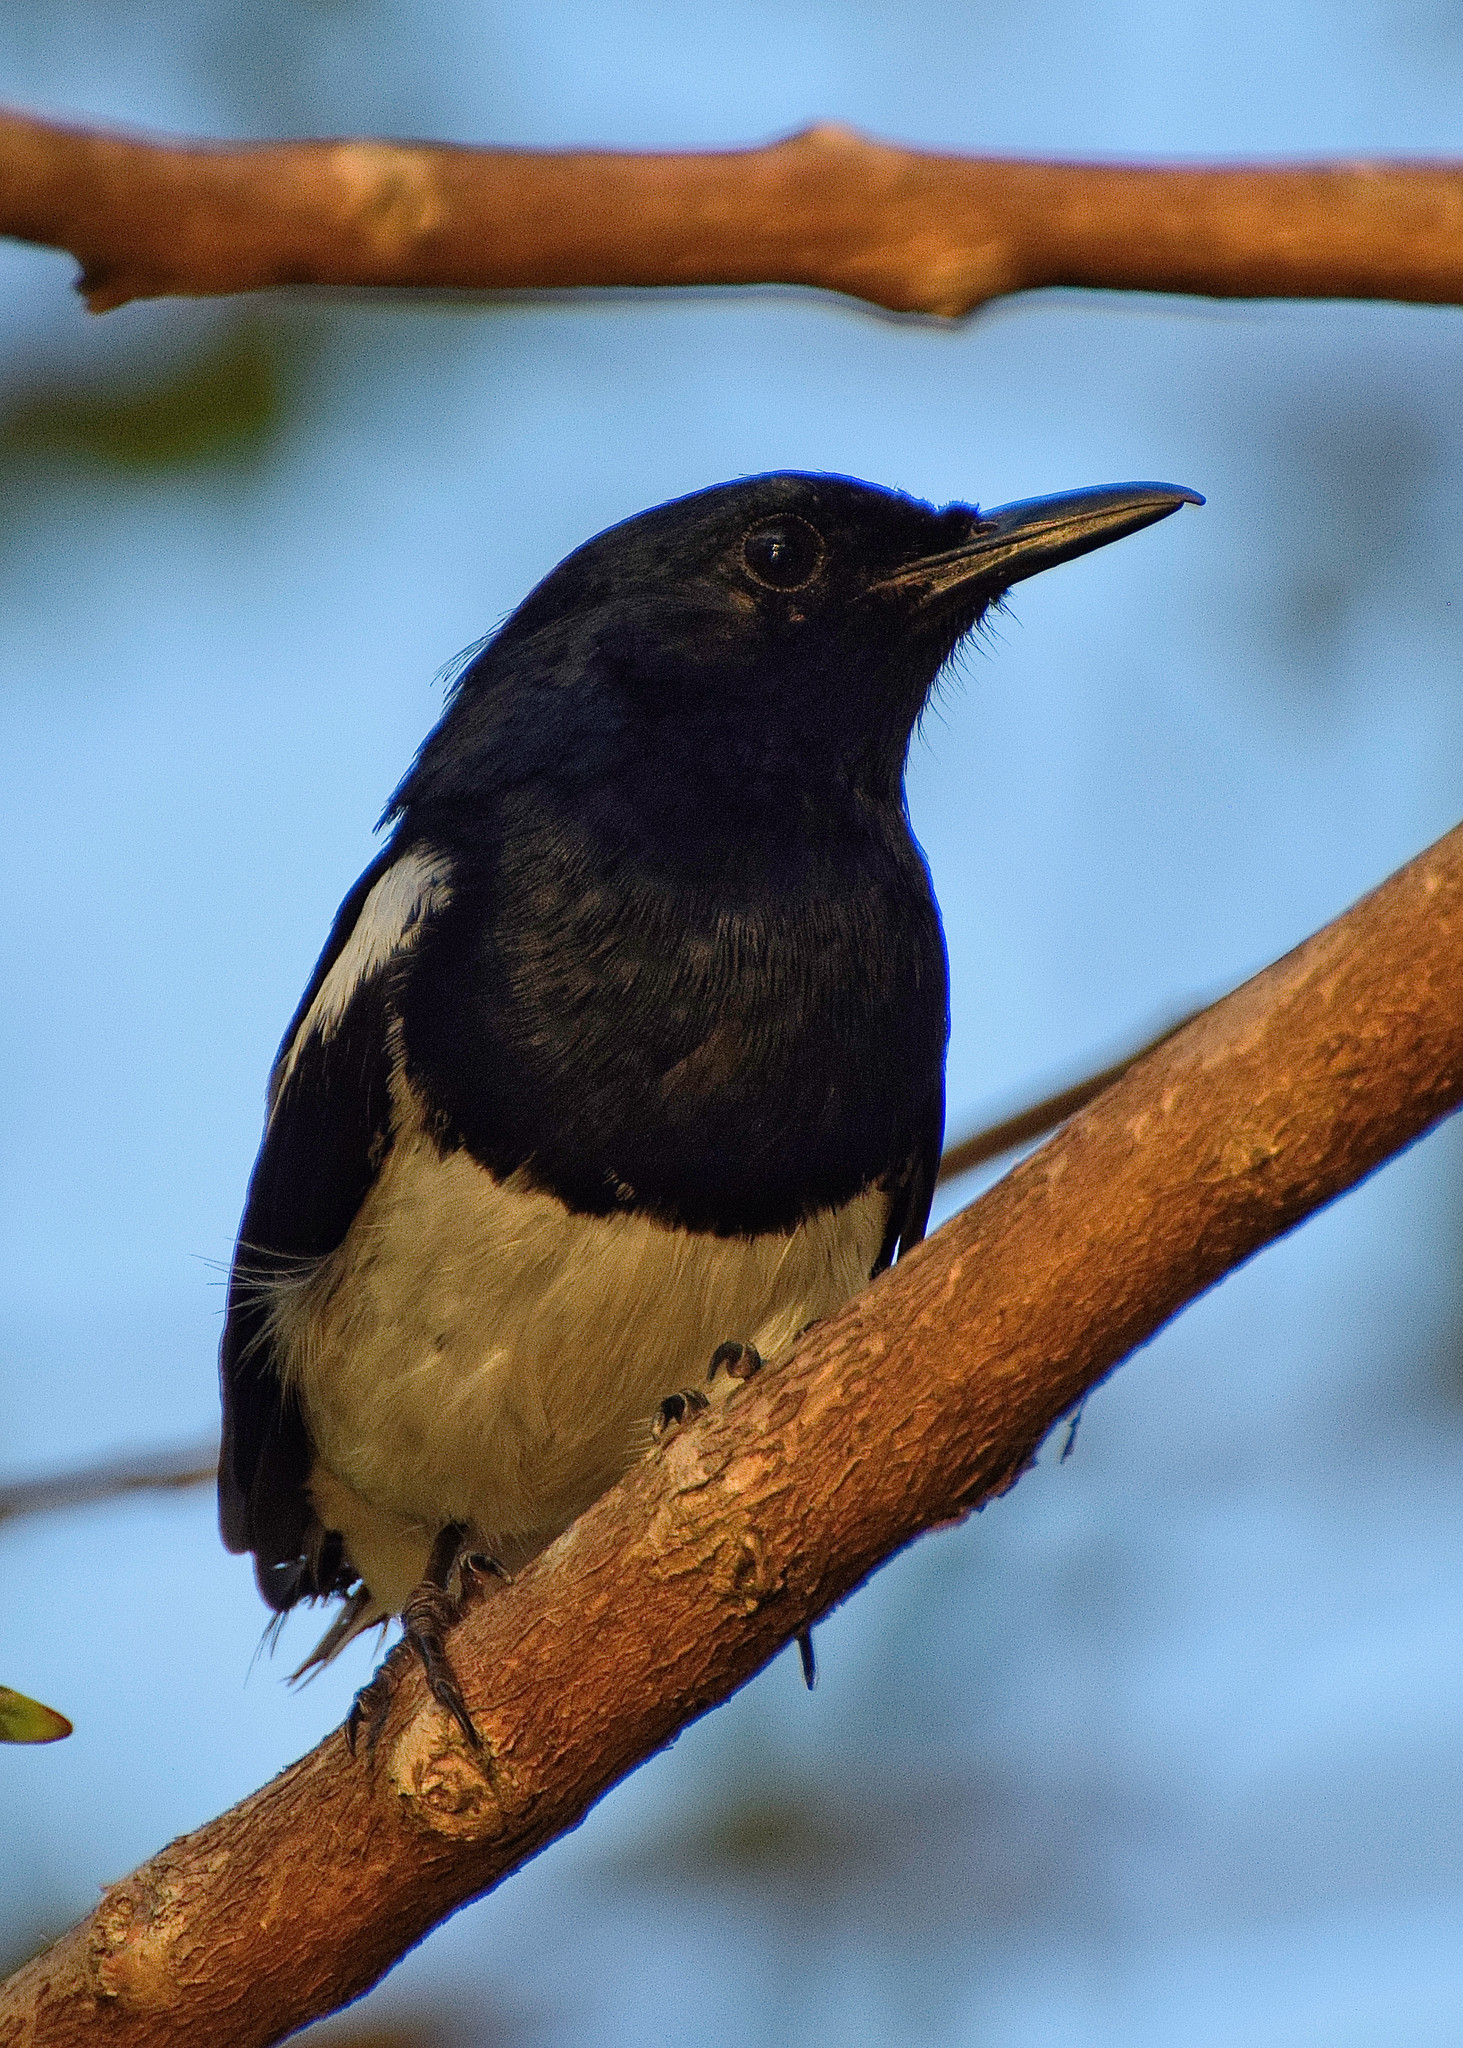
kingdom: Animalia
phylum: Chordata
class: Aves
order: Passeriformes
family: Muscicapidae
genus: Copsychus
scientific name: Copsychus saularis
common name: Oriental magpie-robin
